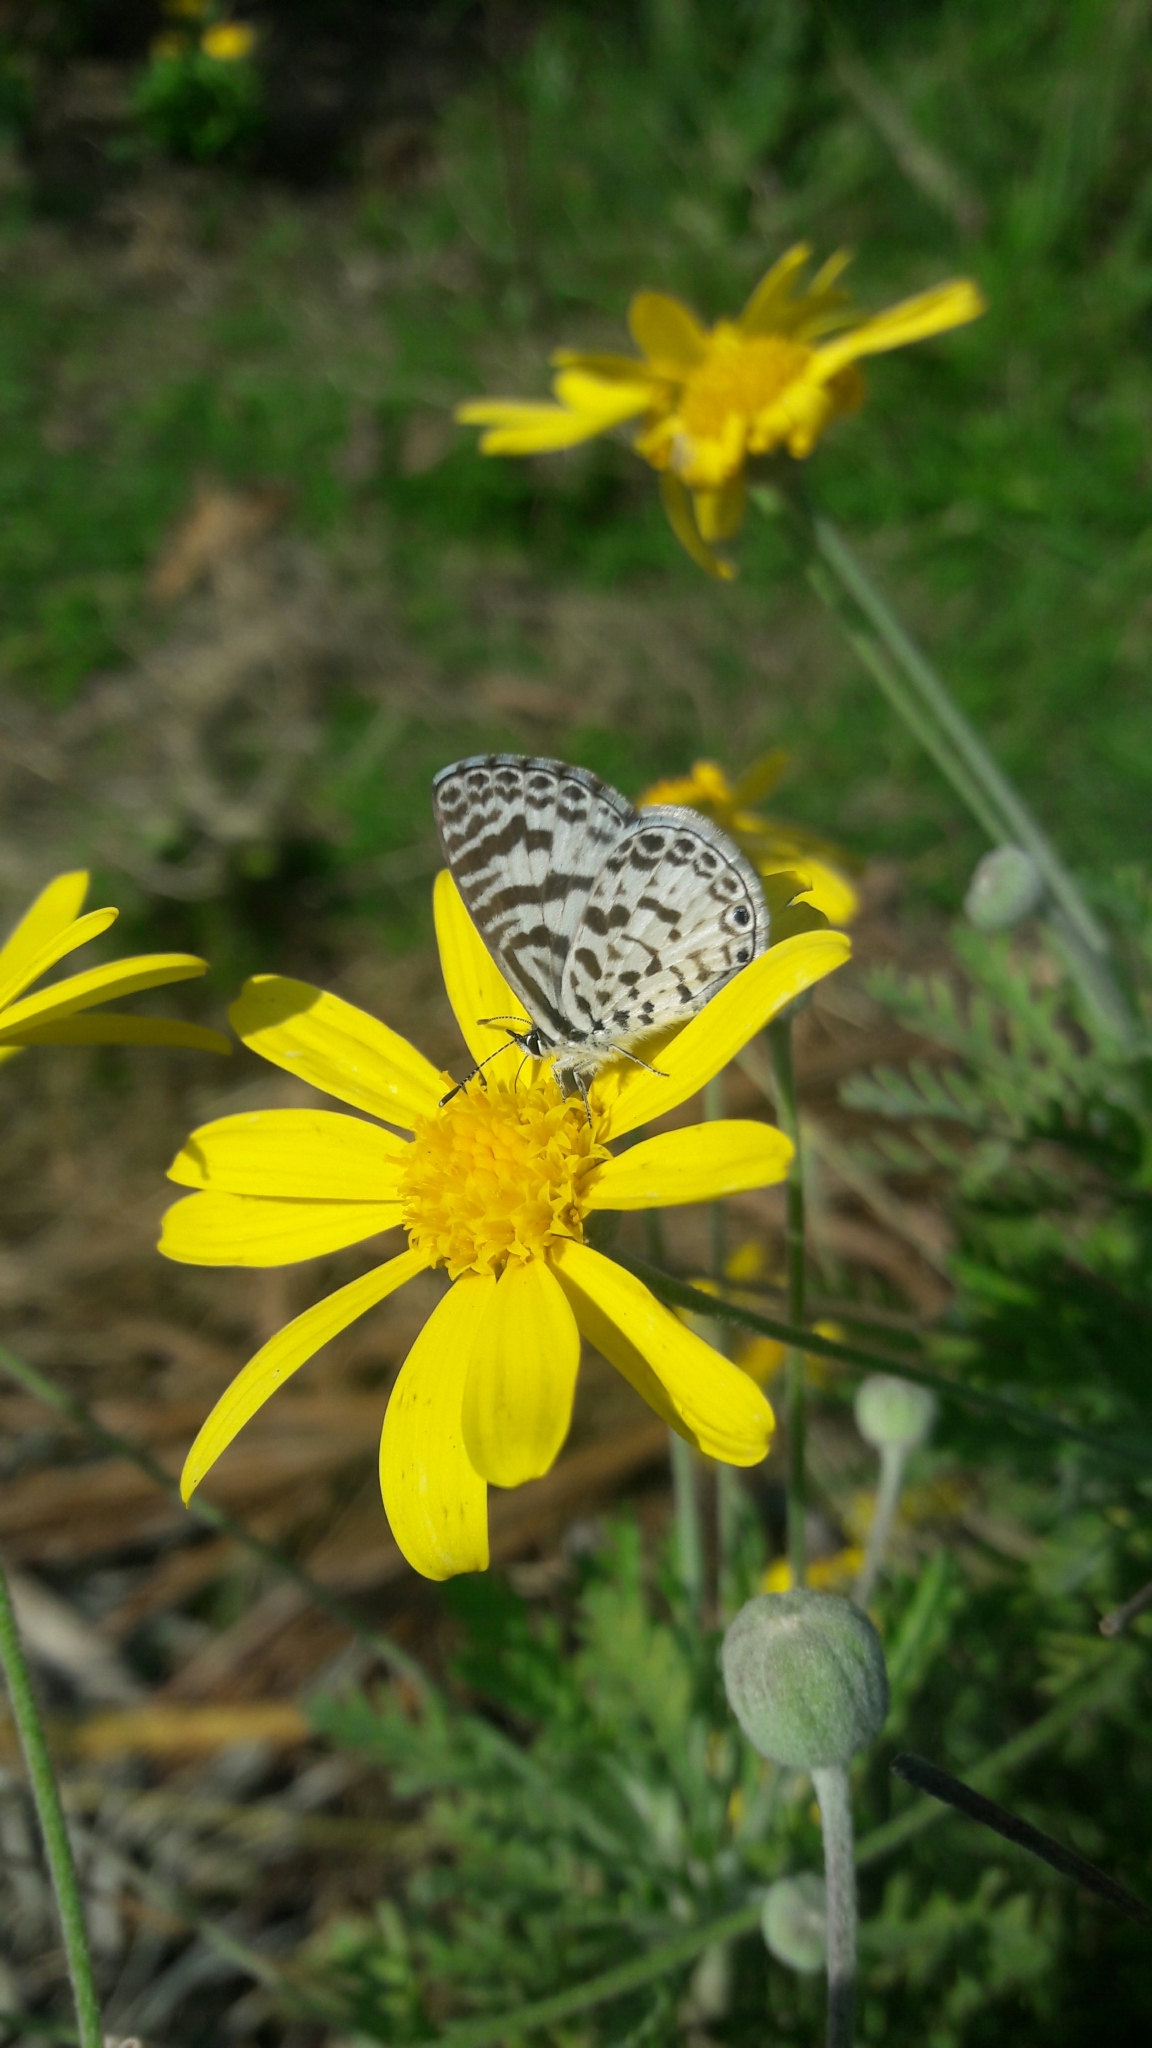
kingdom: Animalia
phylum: Arthropoda
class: Insecta
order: Lepidoptera
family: Lycaenidae
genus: Leptotes
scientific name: Leptotes cassius
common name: Cassius blue
